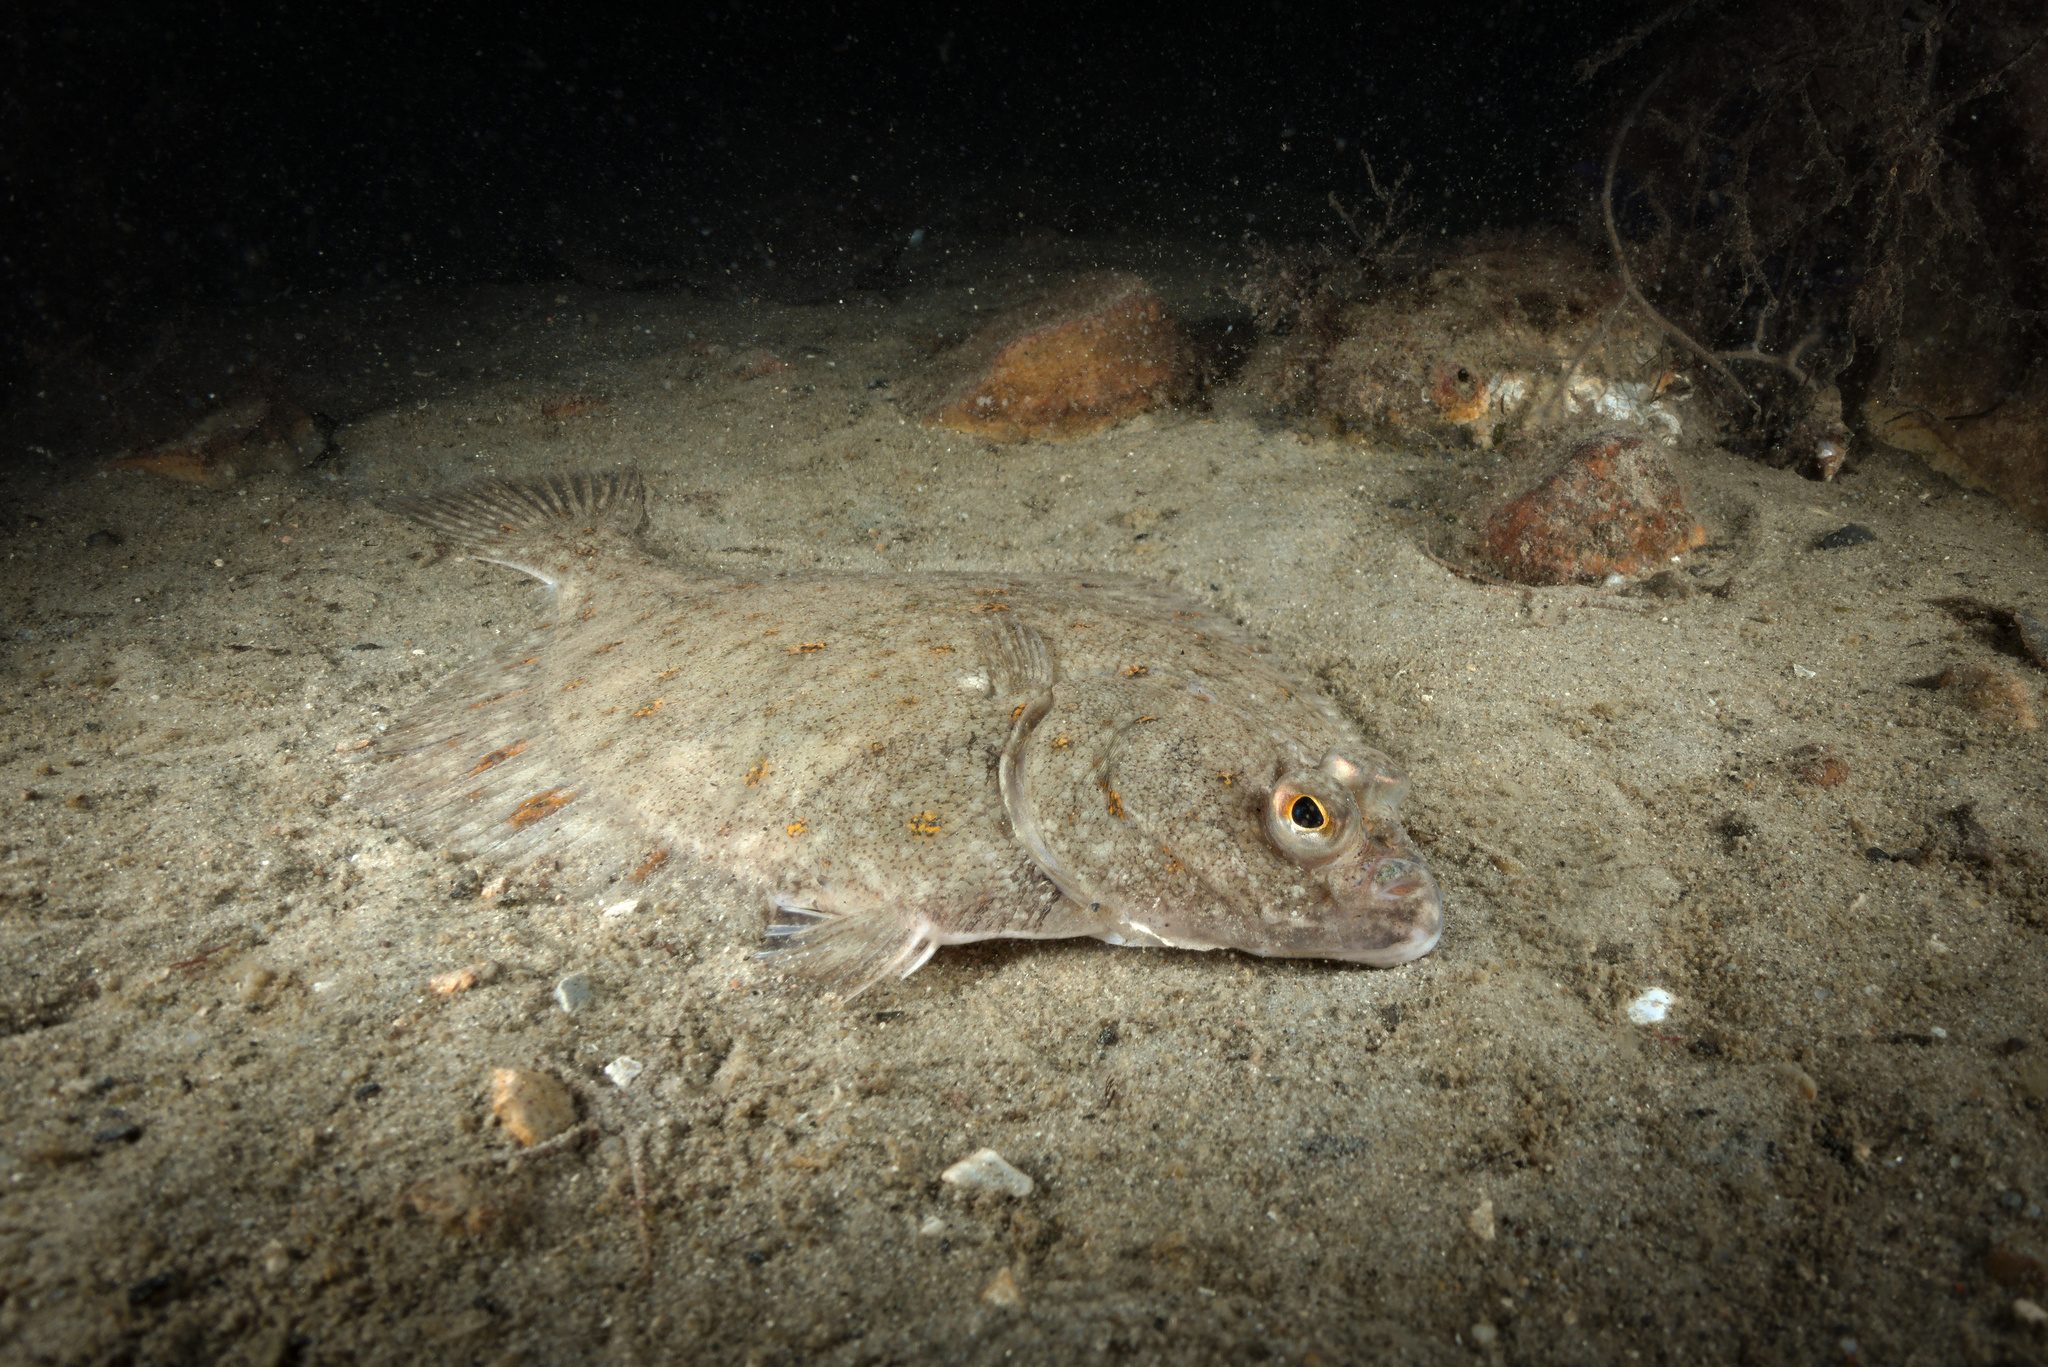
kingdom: Animalia
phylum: Chordata
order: Pleuronectiformes
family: Pleuronectidae
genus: Pleuronectes
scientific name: Pleuronectes platessa
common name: Plaice
